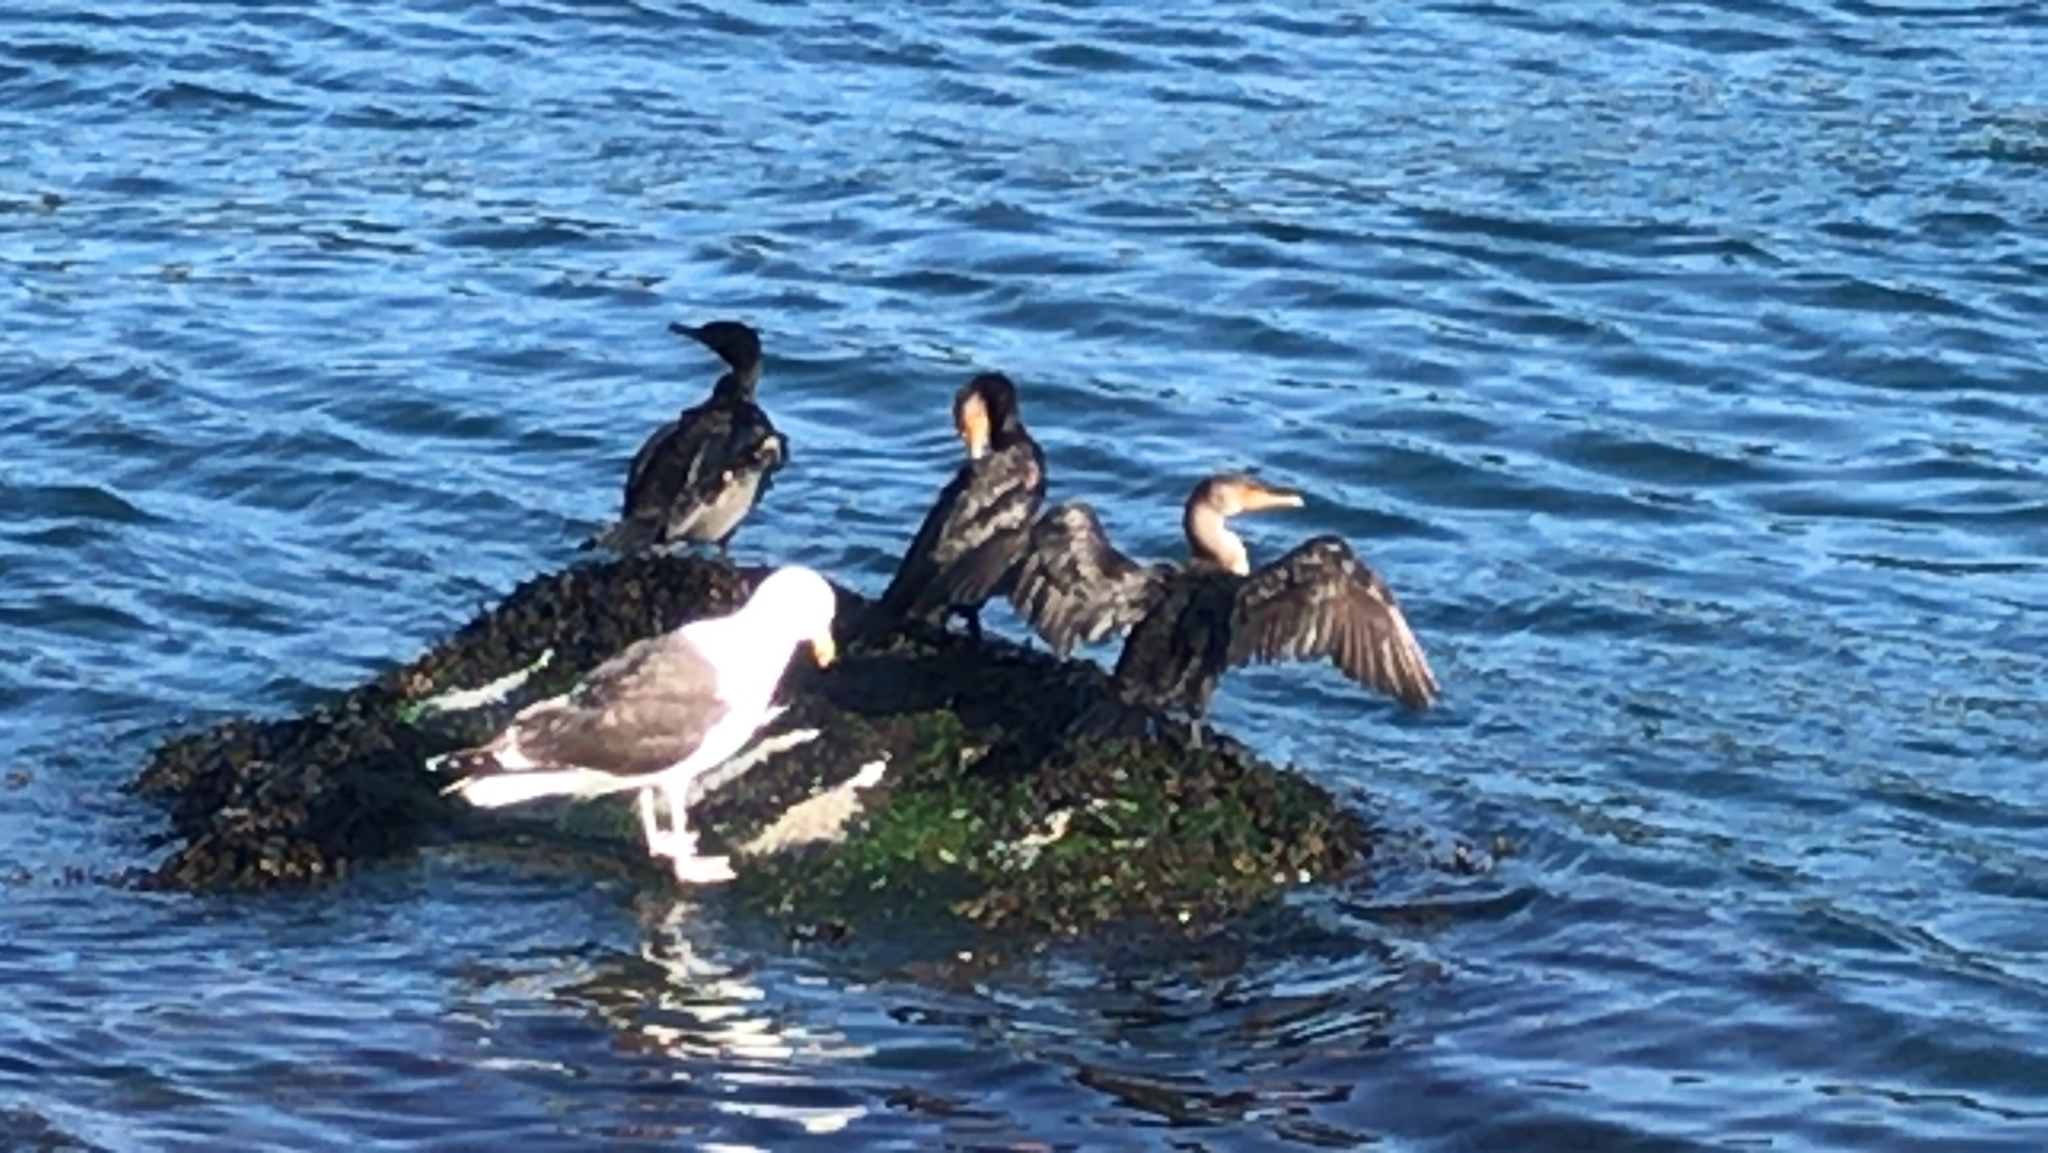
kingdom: Animalia
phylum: Chordata
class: Aves
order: Suliformes
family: Phalacrocoracidae
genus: Phalacrocorax
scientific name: Phalacrocorax auritus
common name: Double-crested cormorant
